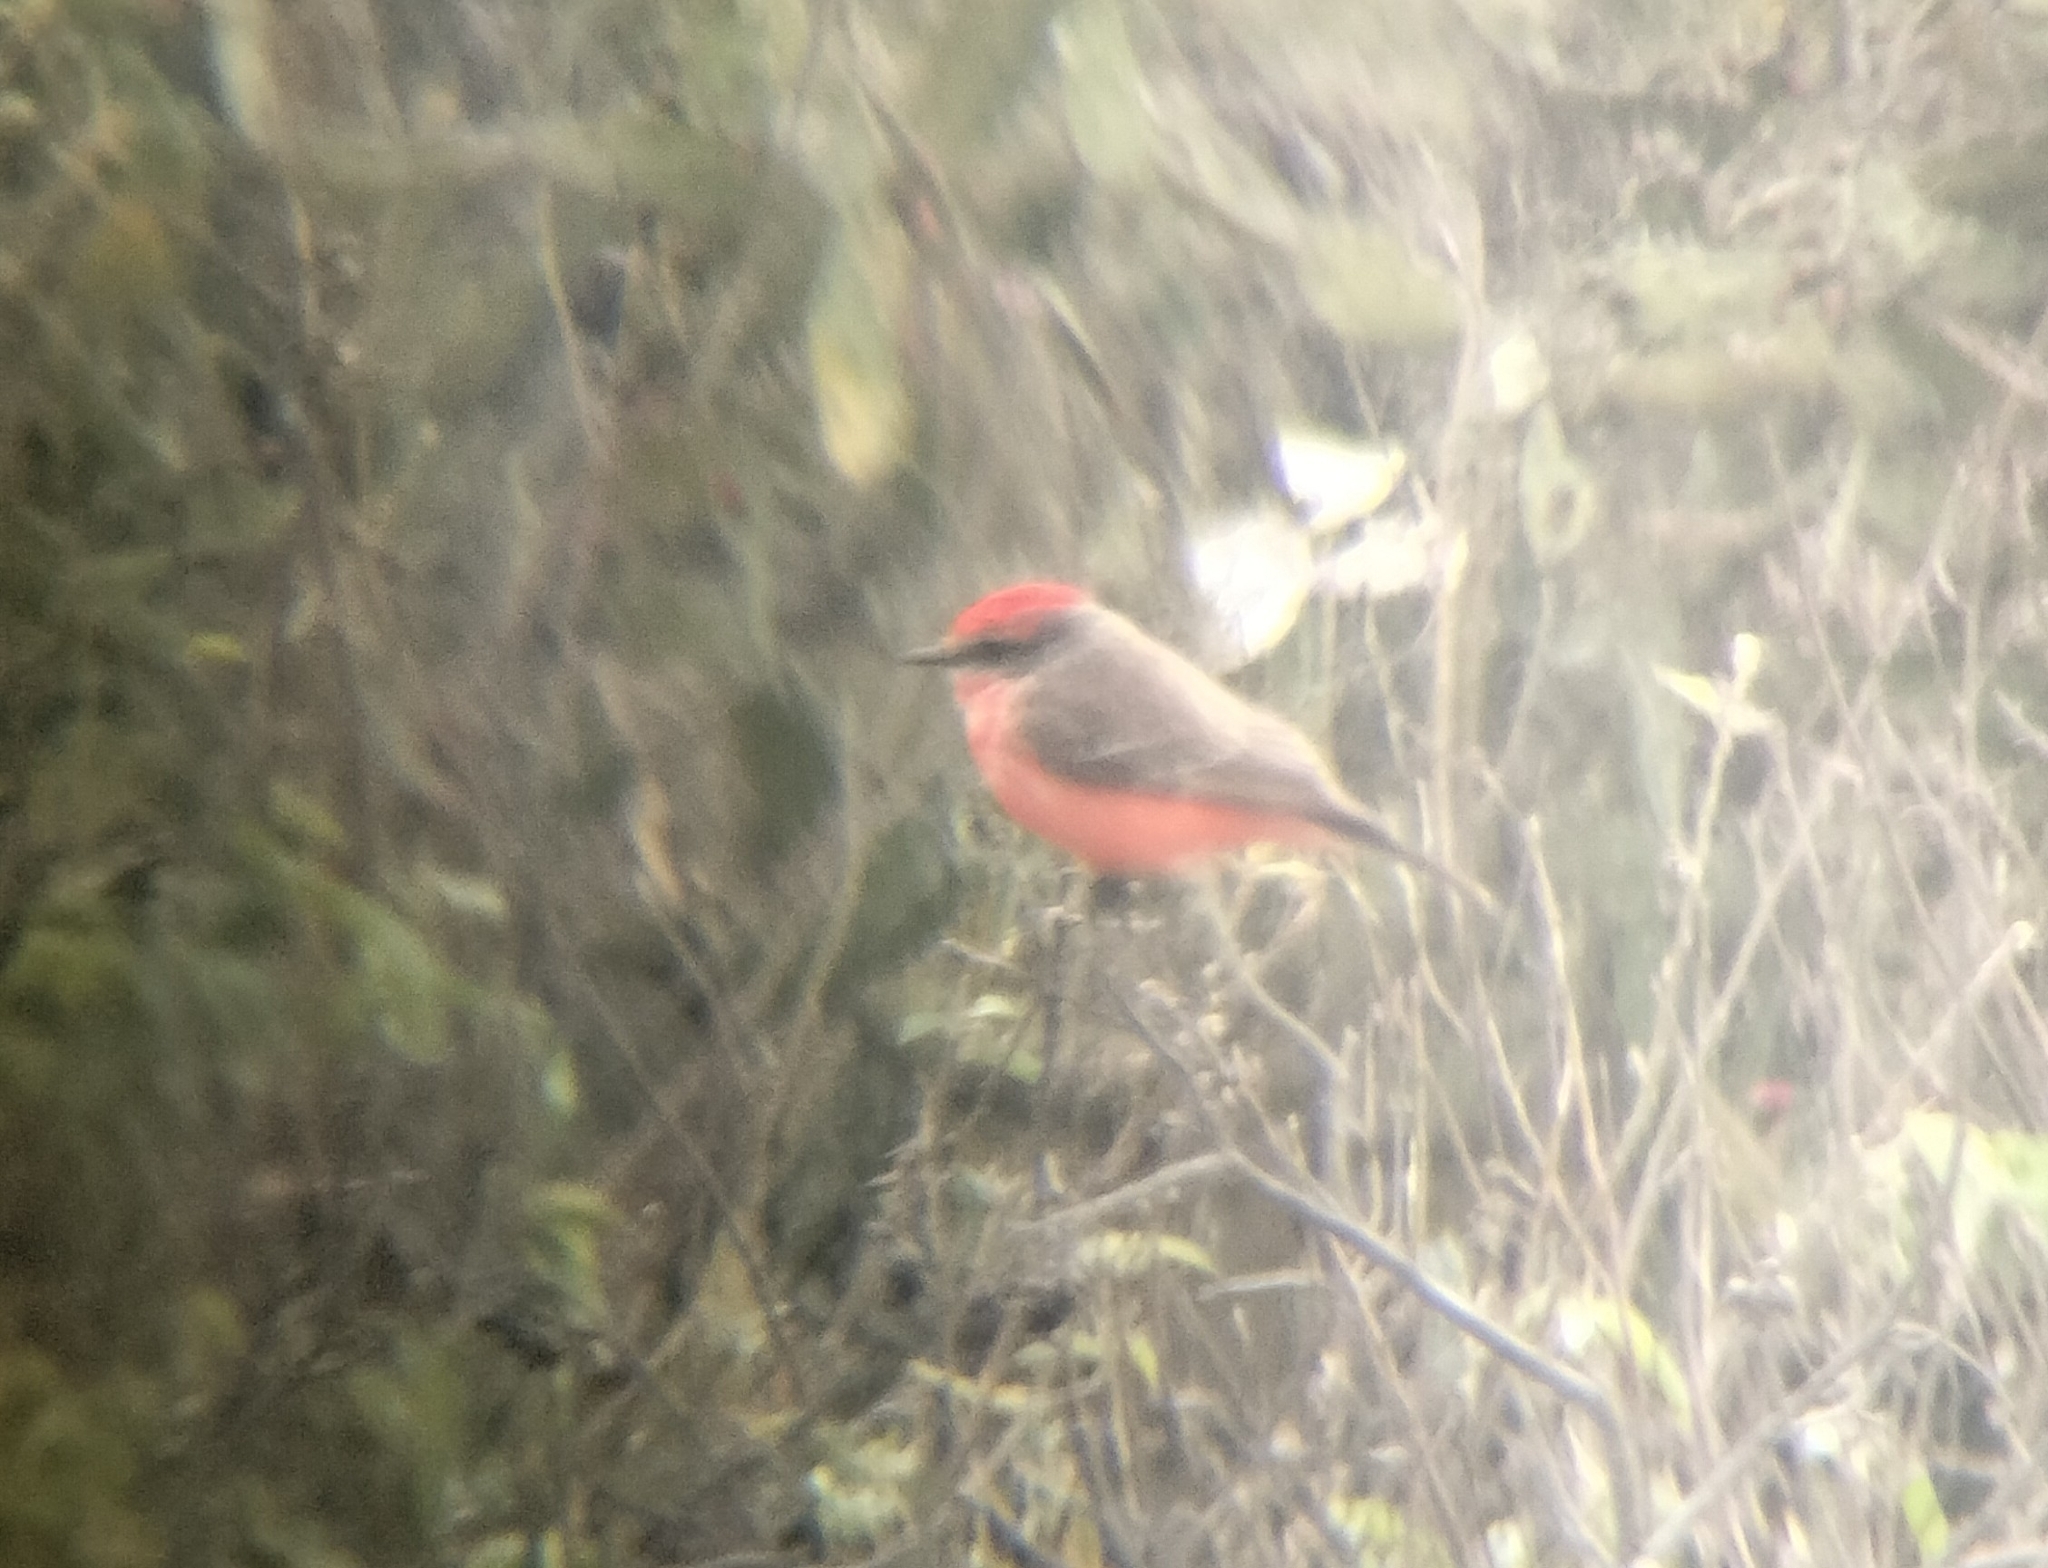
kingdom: Animalia
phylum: Chordata
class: Aves
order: Passeriformes
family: Tyrannidae
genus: Pyrocephalus
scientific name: Pyrocephalus rubinus
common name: Vermilion flycatcher
